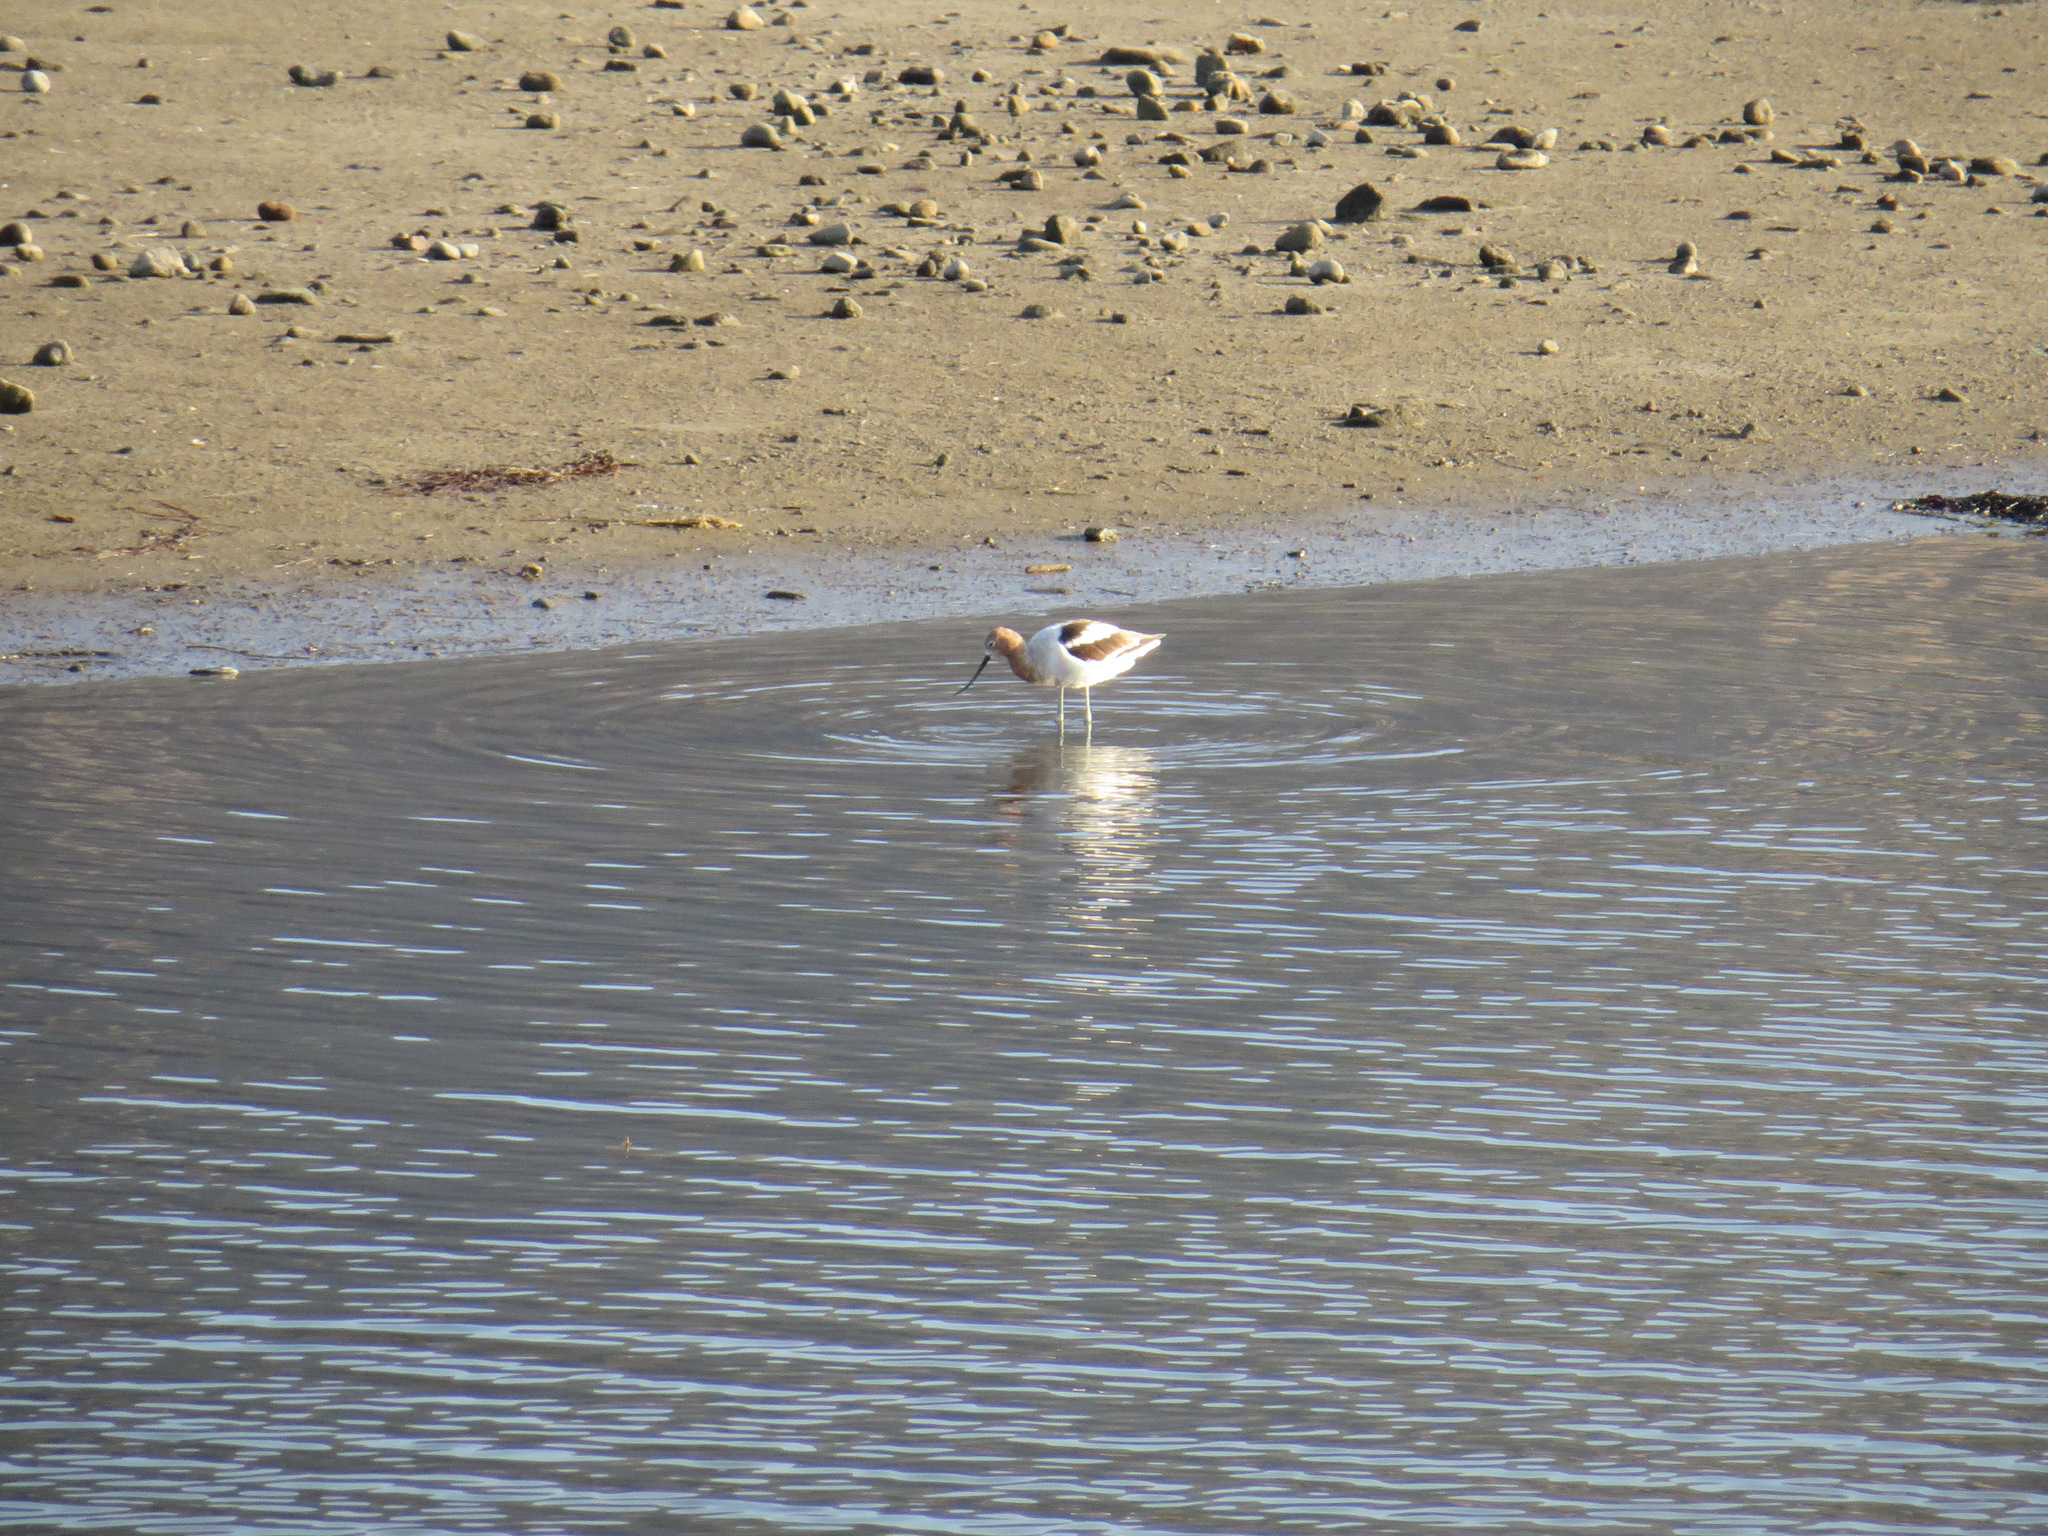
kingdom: Animalia
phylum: Chordata
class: Aves
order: Charadriiformes
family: Recurvirostridae
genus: Recurvirostra
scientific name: Recurvirostra americana
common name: American avocet
